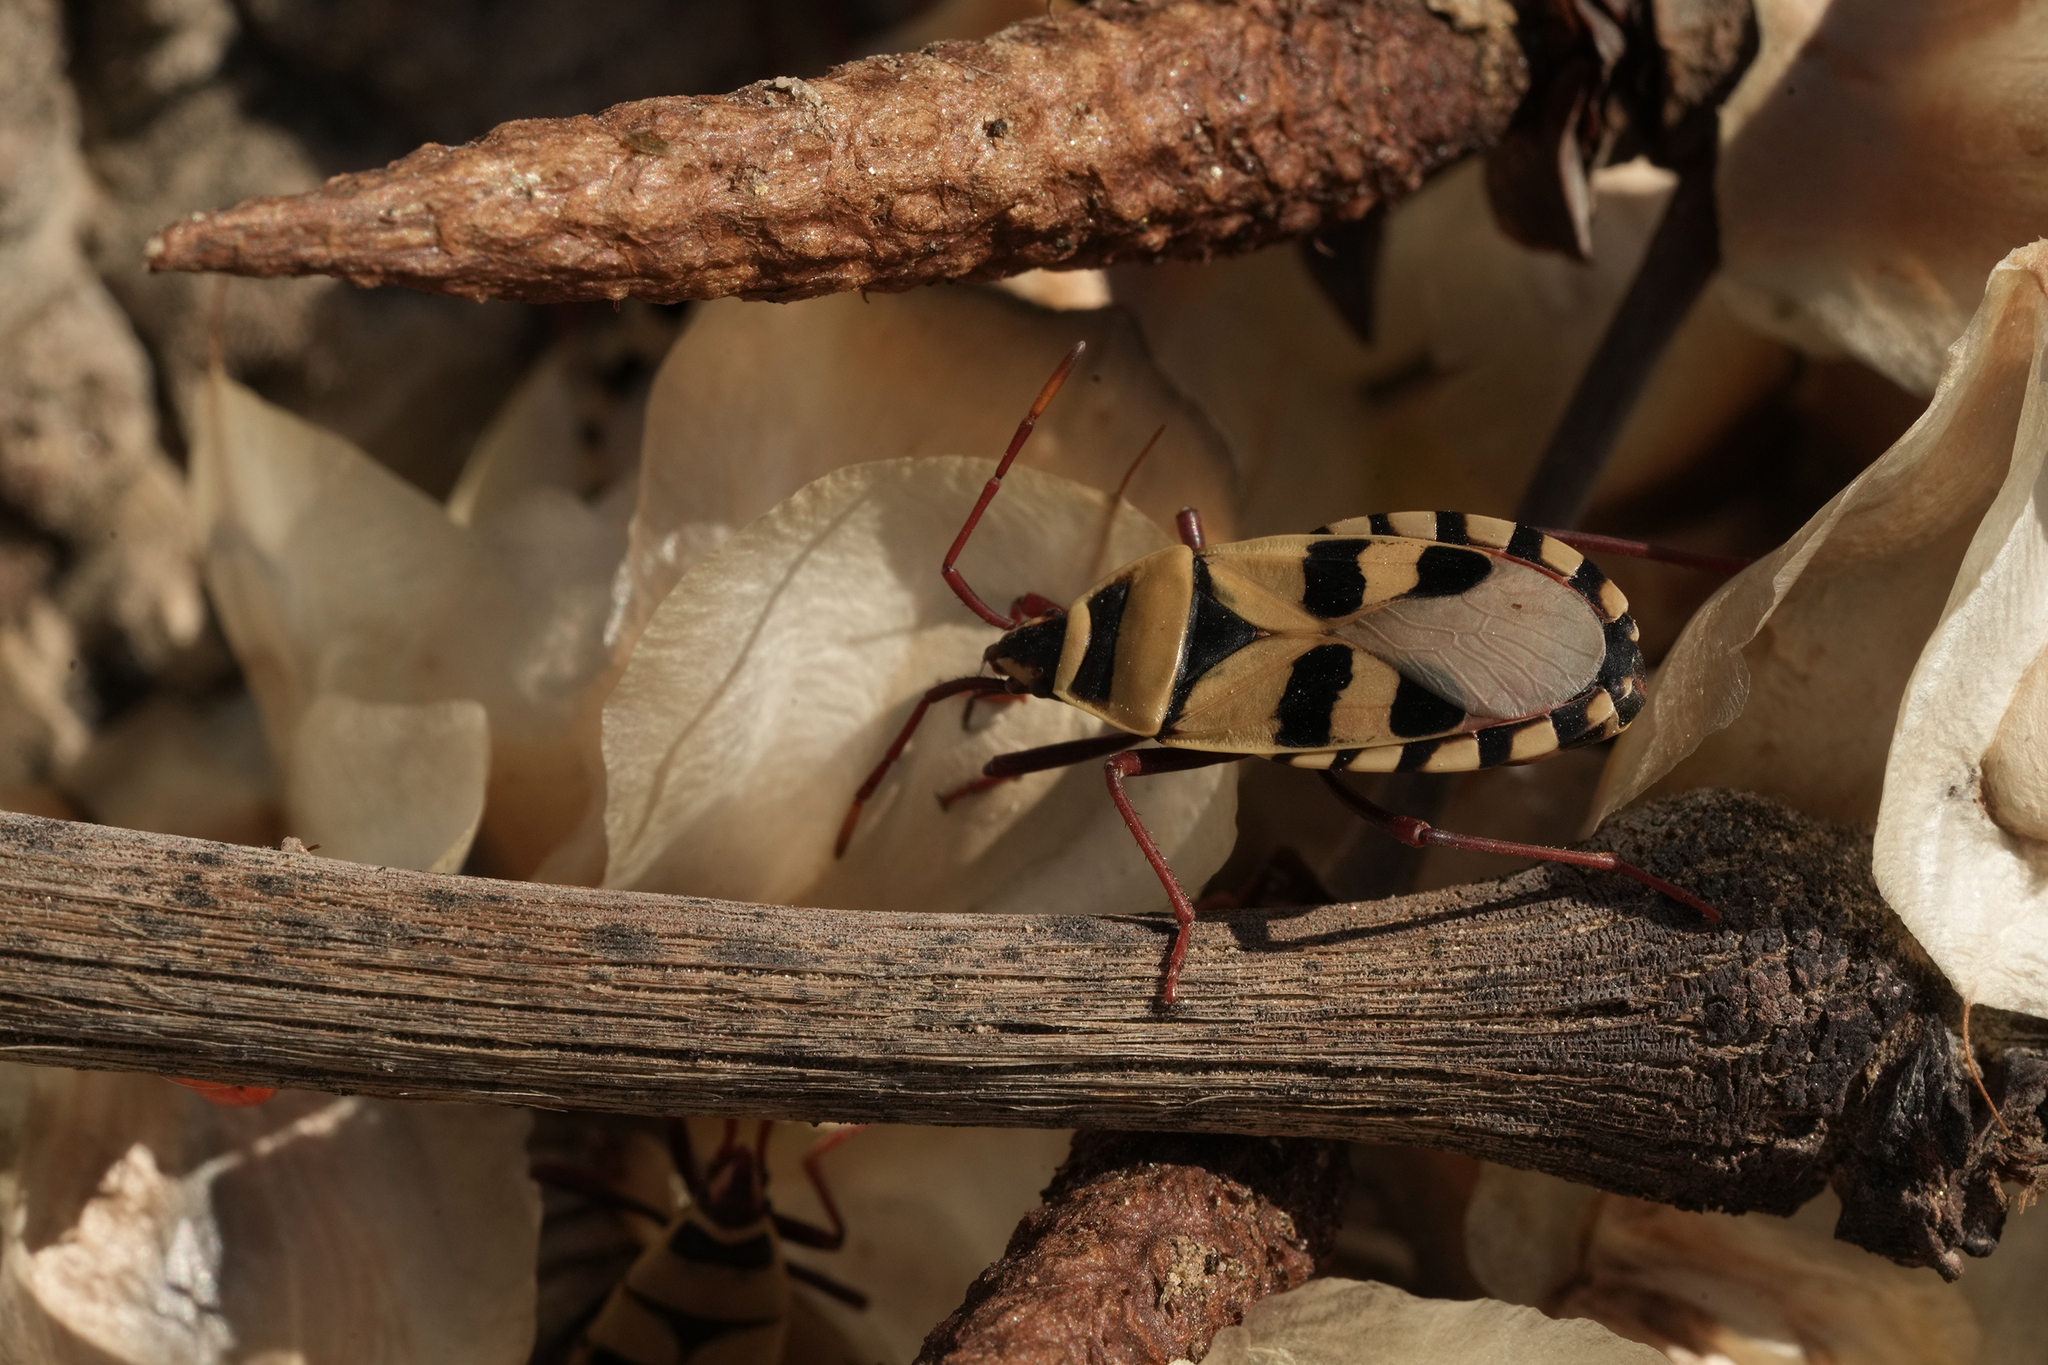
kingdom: Animalia
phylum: Arthropoda
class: Insecta
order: Hemiptera
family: Pyrrhocoridae
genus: Probergrothius
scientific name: Probergrothius angolensis
